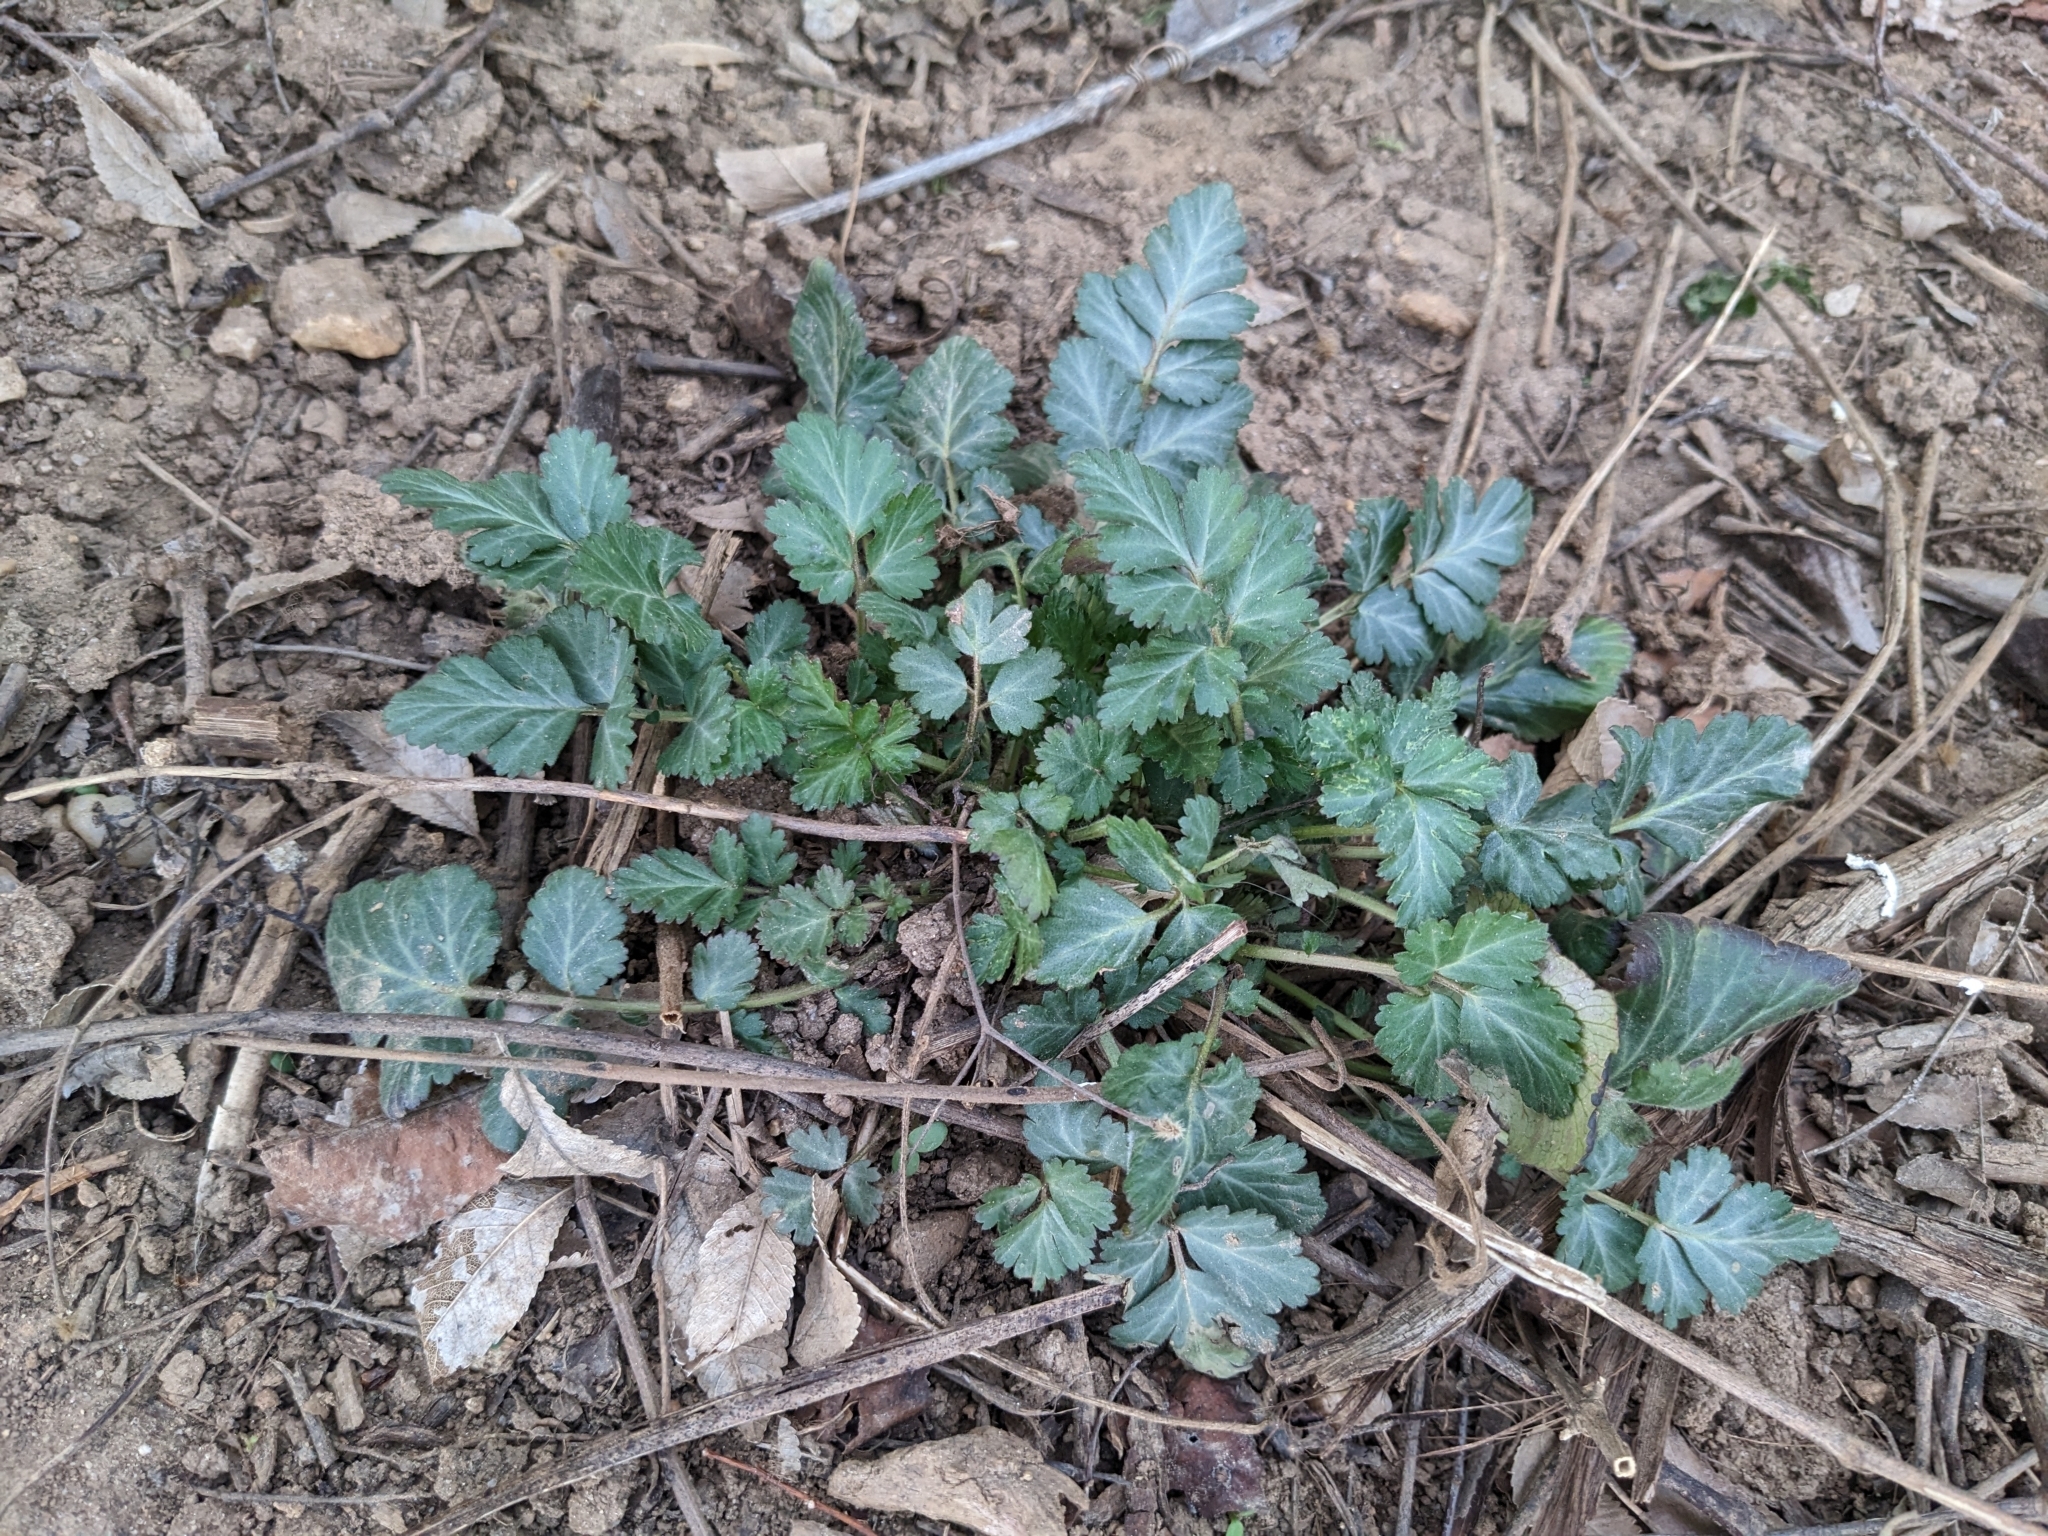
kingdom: Plantae
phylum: Tracheophyta
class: Magnoliopsida
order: Rosales
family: Rosaceae
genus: Geum
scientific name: Geum canadense
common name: White avens
